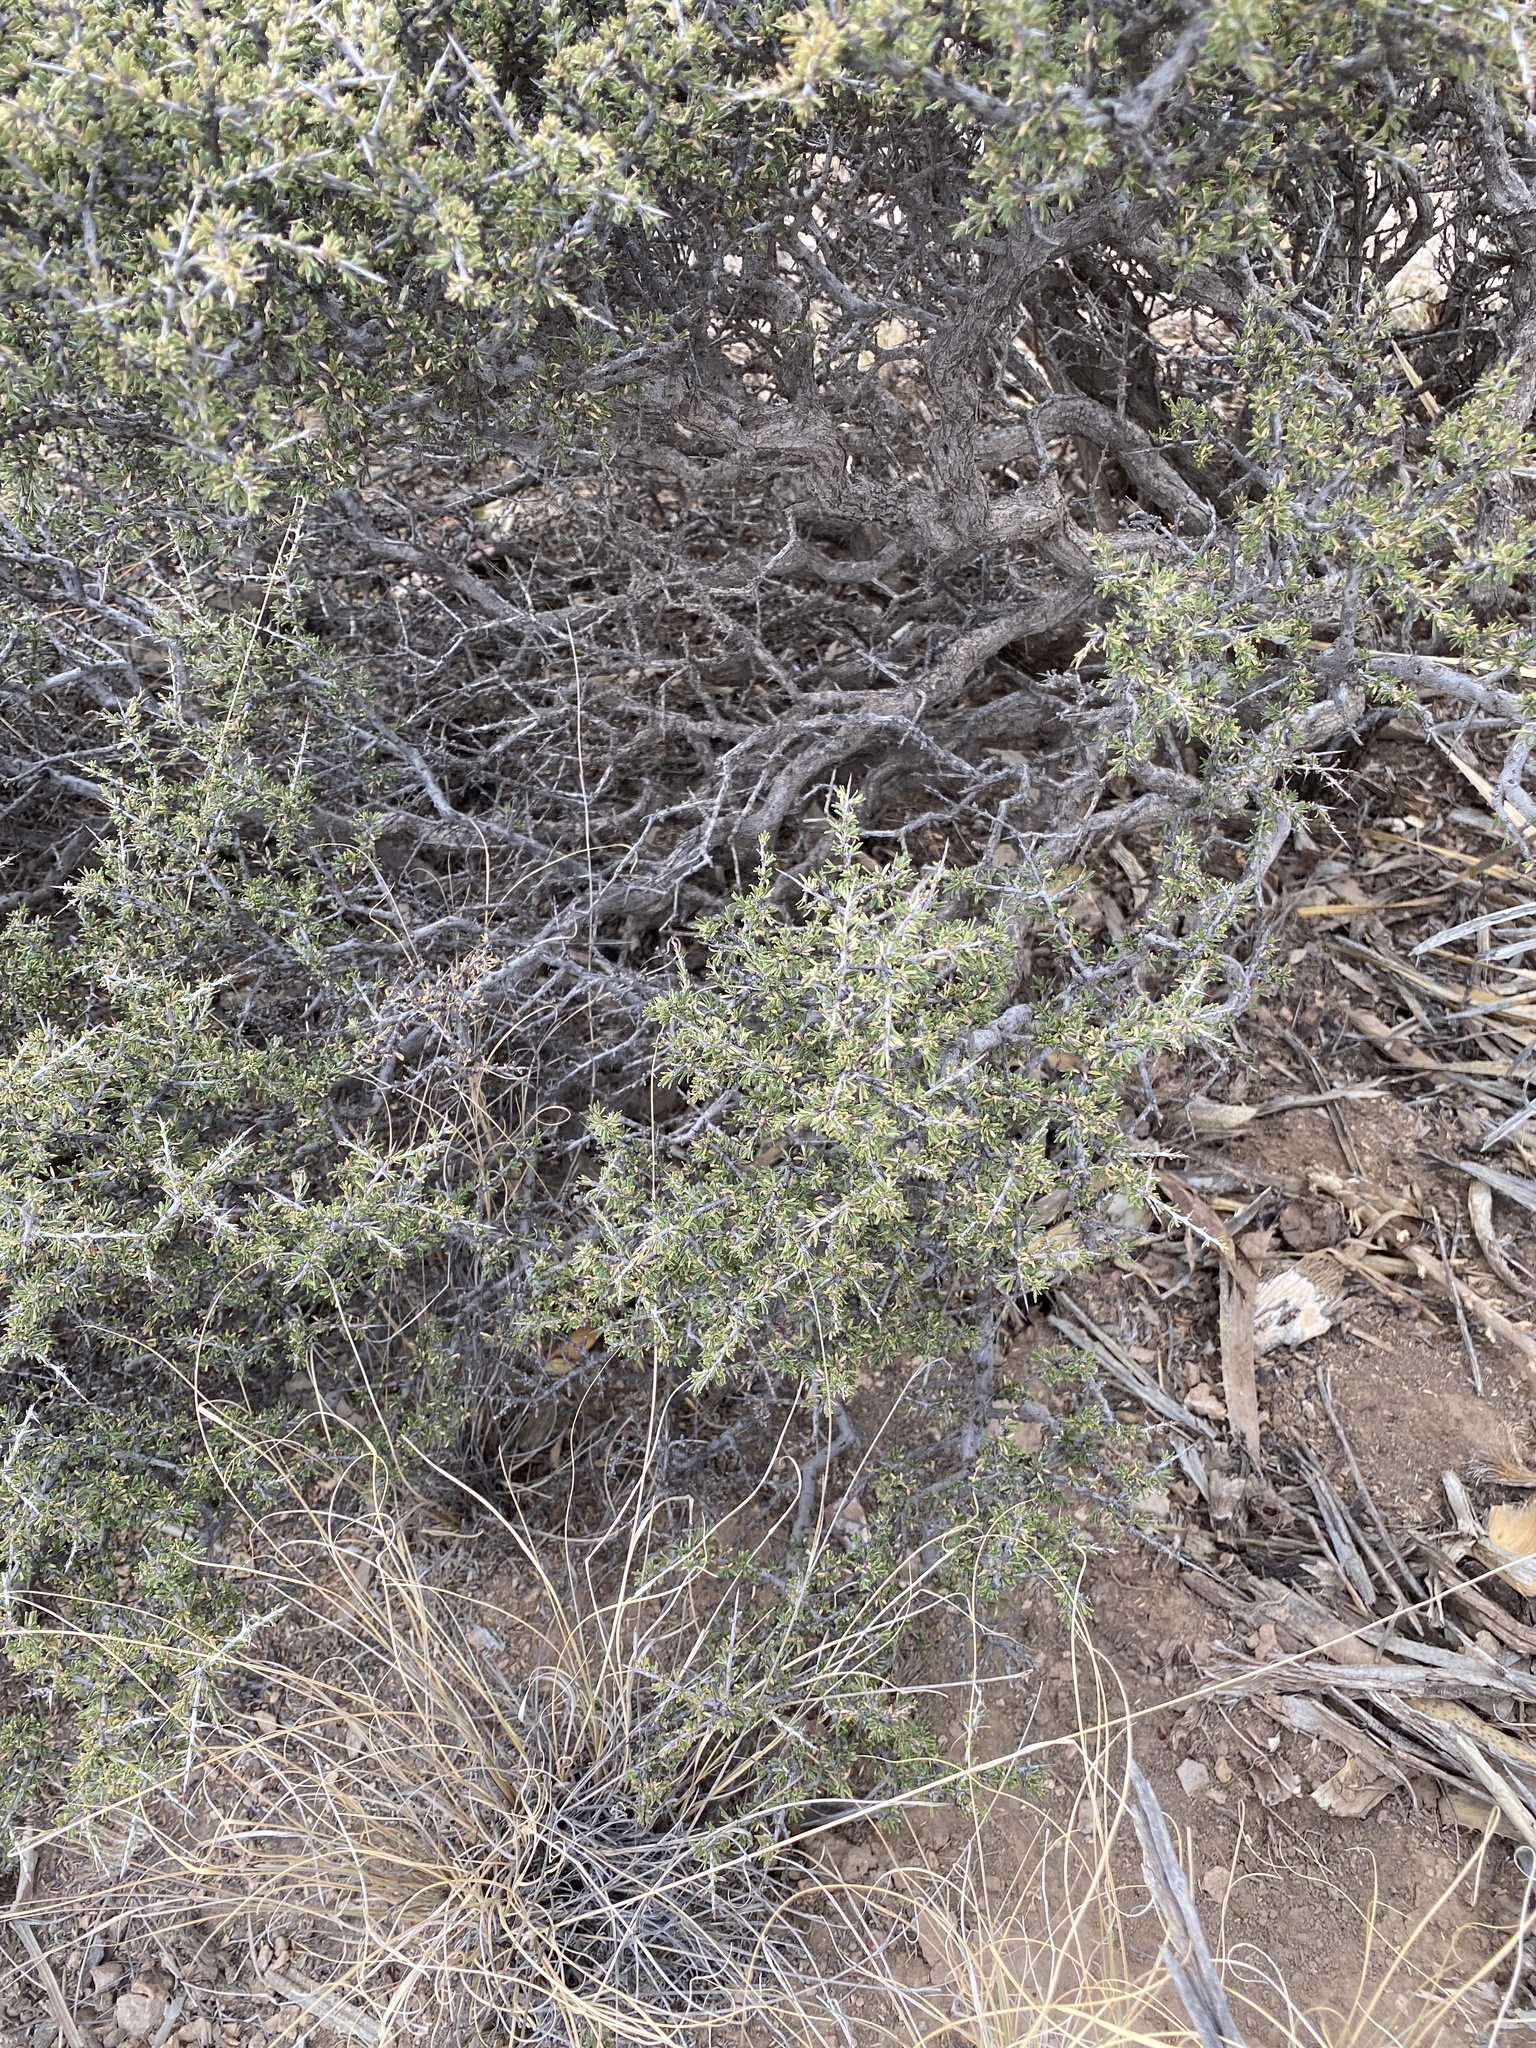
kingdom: Plantae
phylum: Tracheophyta
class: Magnoliopsida
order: Rosales
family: Rhamnaceae
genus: Condalia
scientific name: Condalia ericoides
